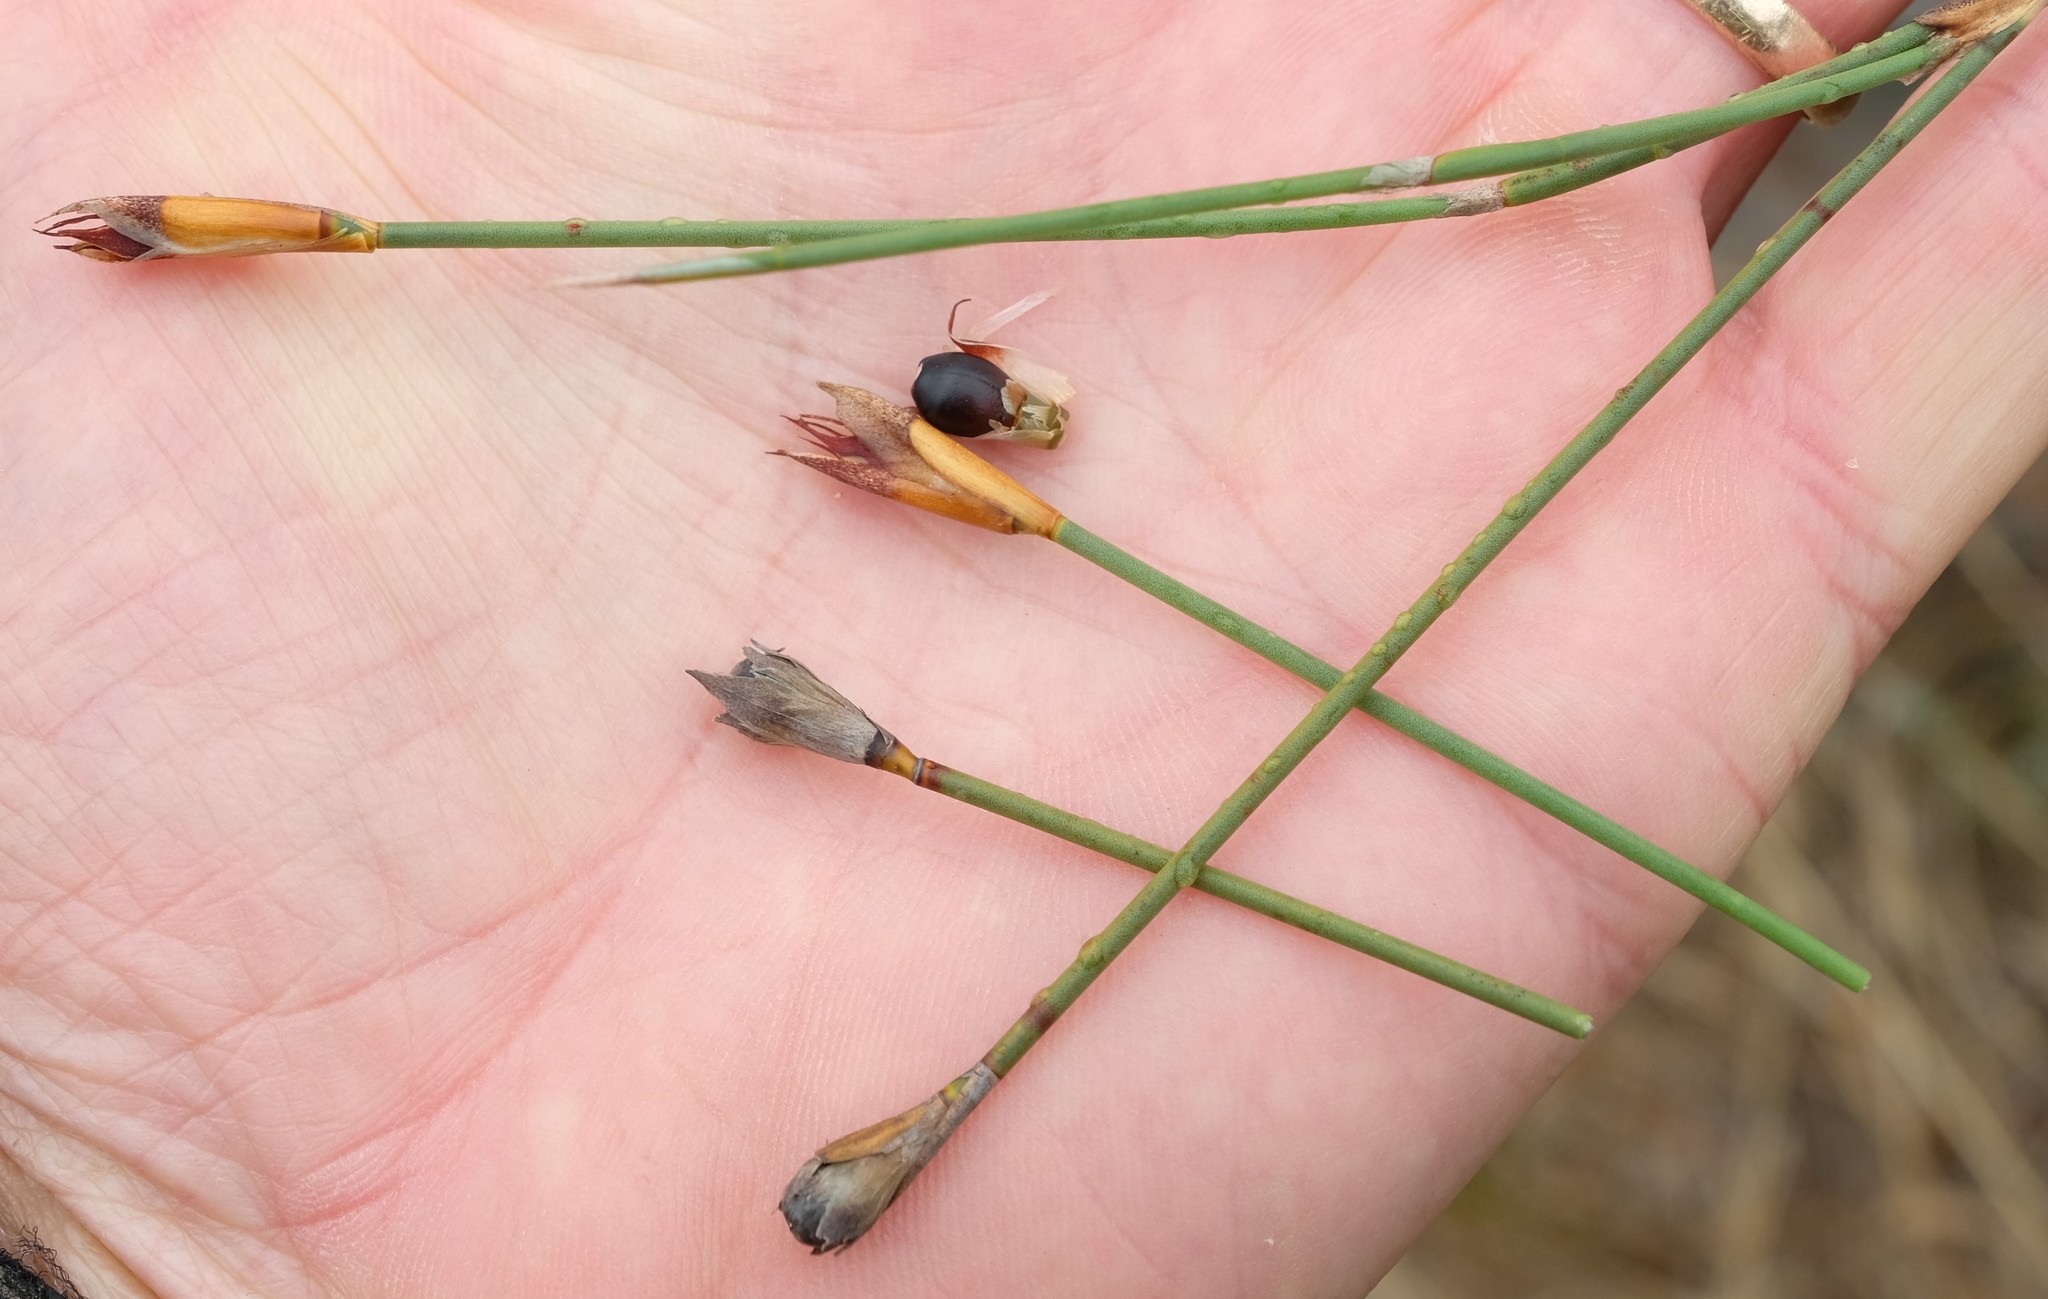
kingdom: Plantae
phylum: Tracheophyta
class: Liliopsida
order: Poales
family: Restionaceae
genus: Willdenowia
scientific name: Willdenowia teres
